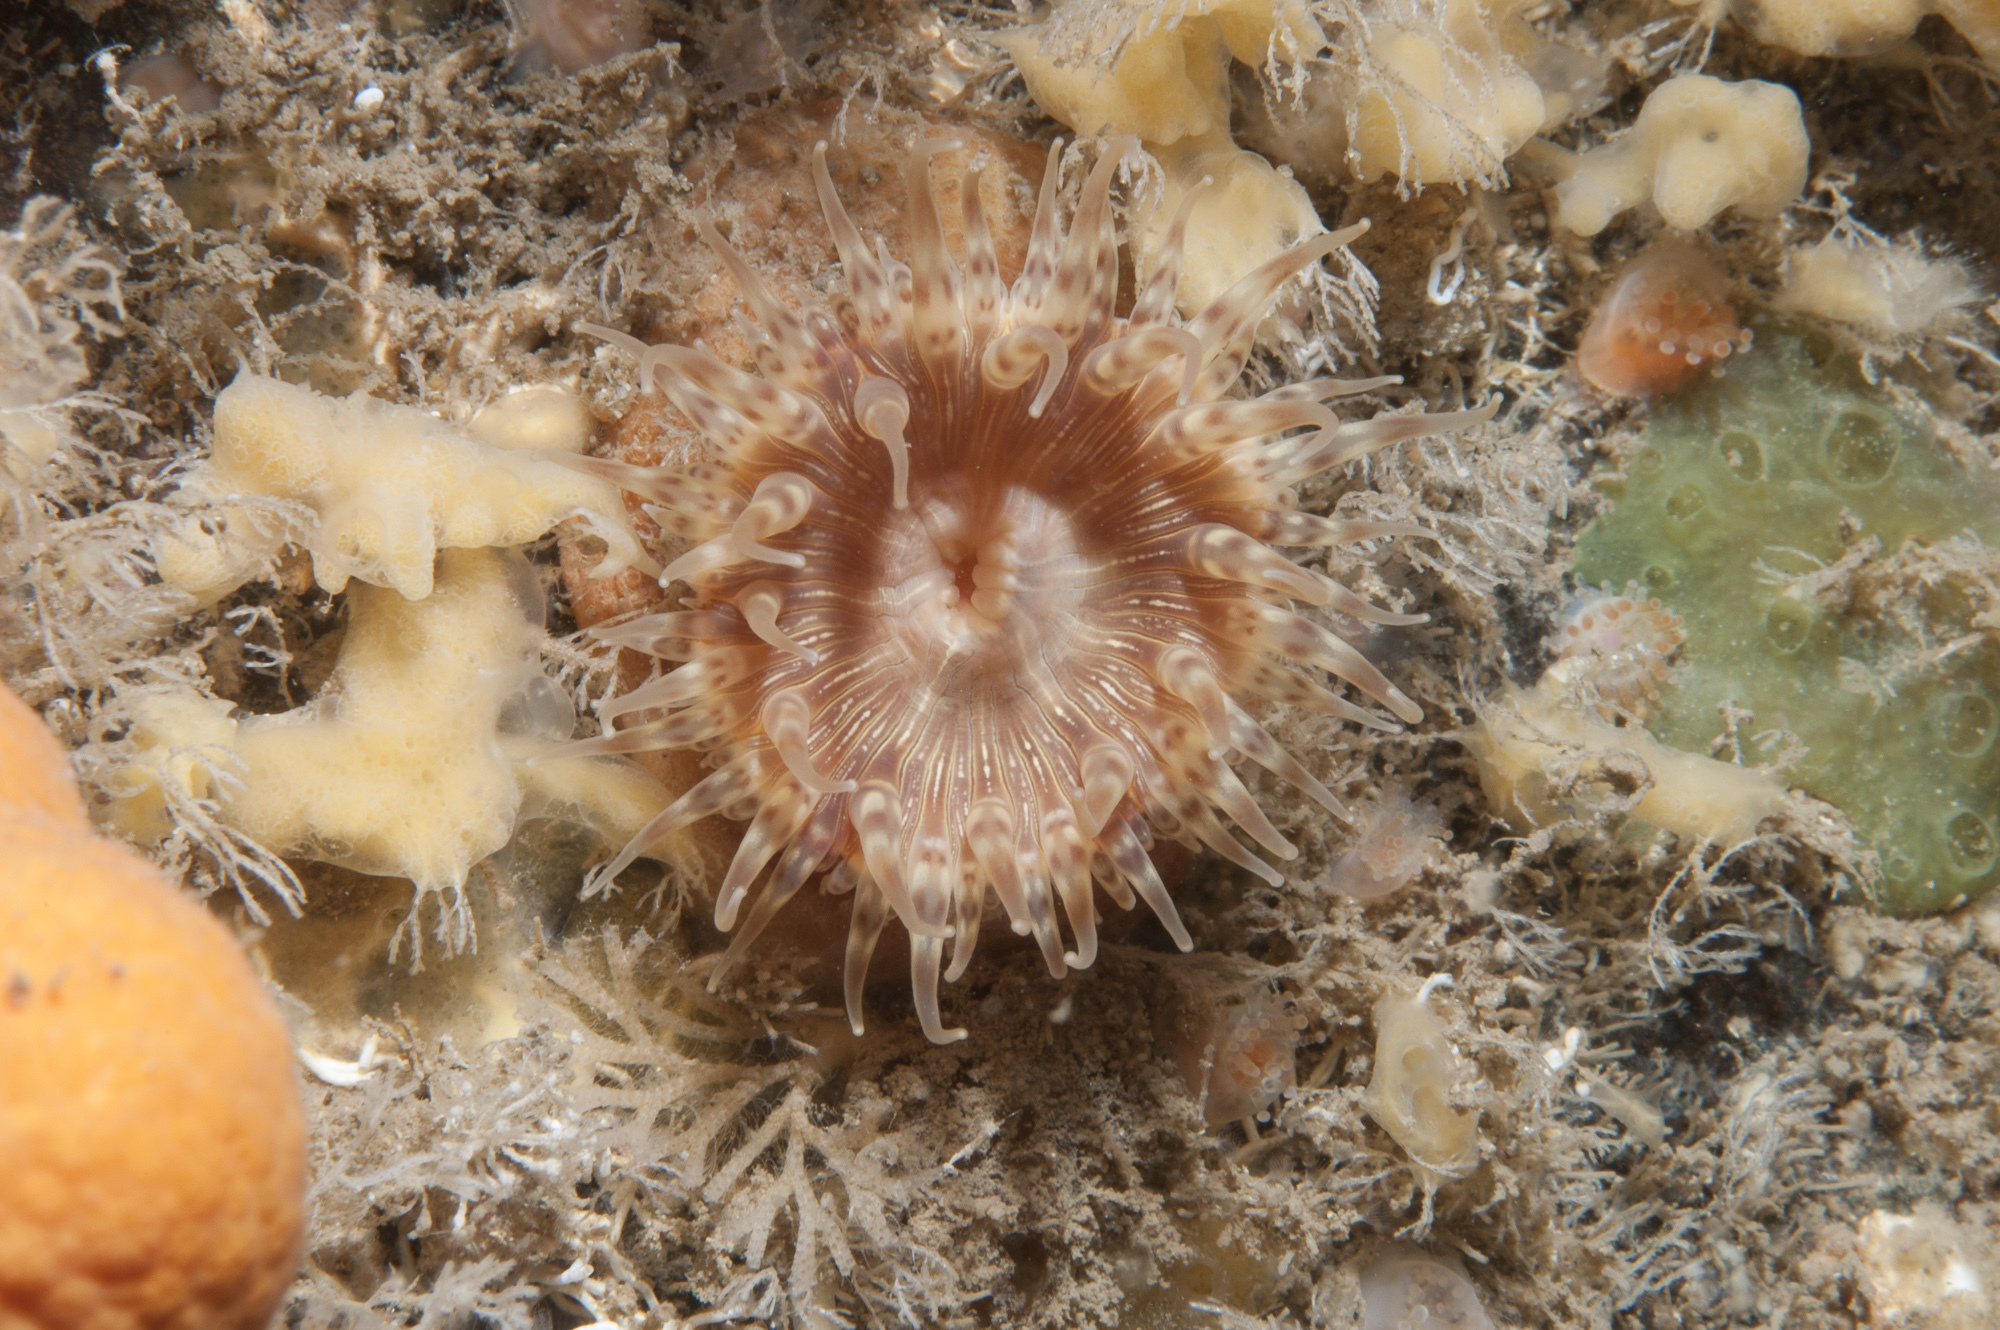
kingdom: Animalia
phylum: Cnidaria
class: Anthozoa
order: Actiniaria
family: Hormathiidae
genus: Hormathia
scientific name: Hormathia coronata
